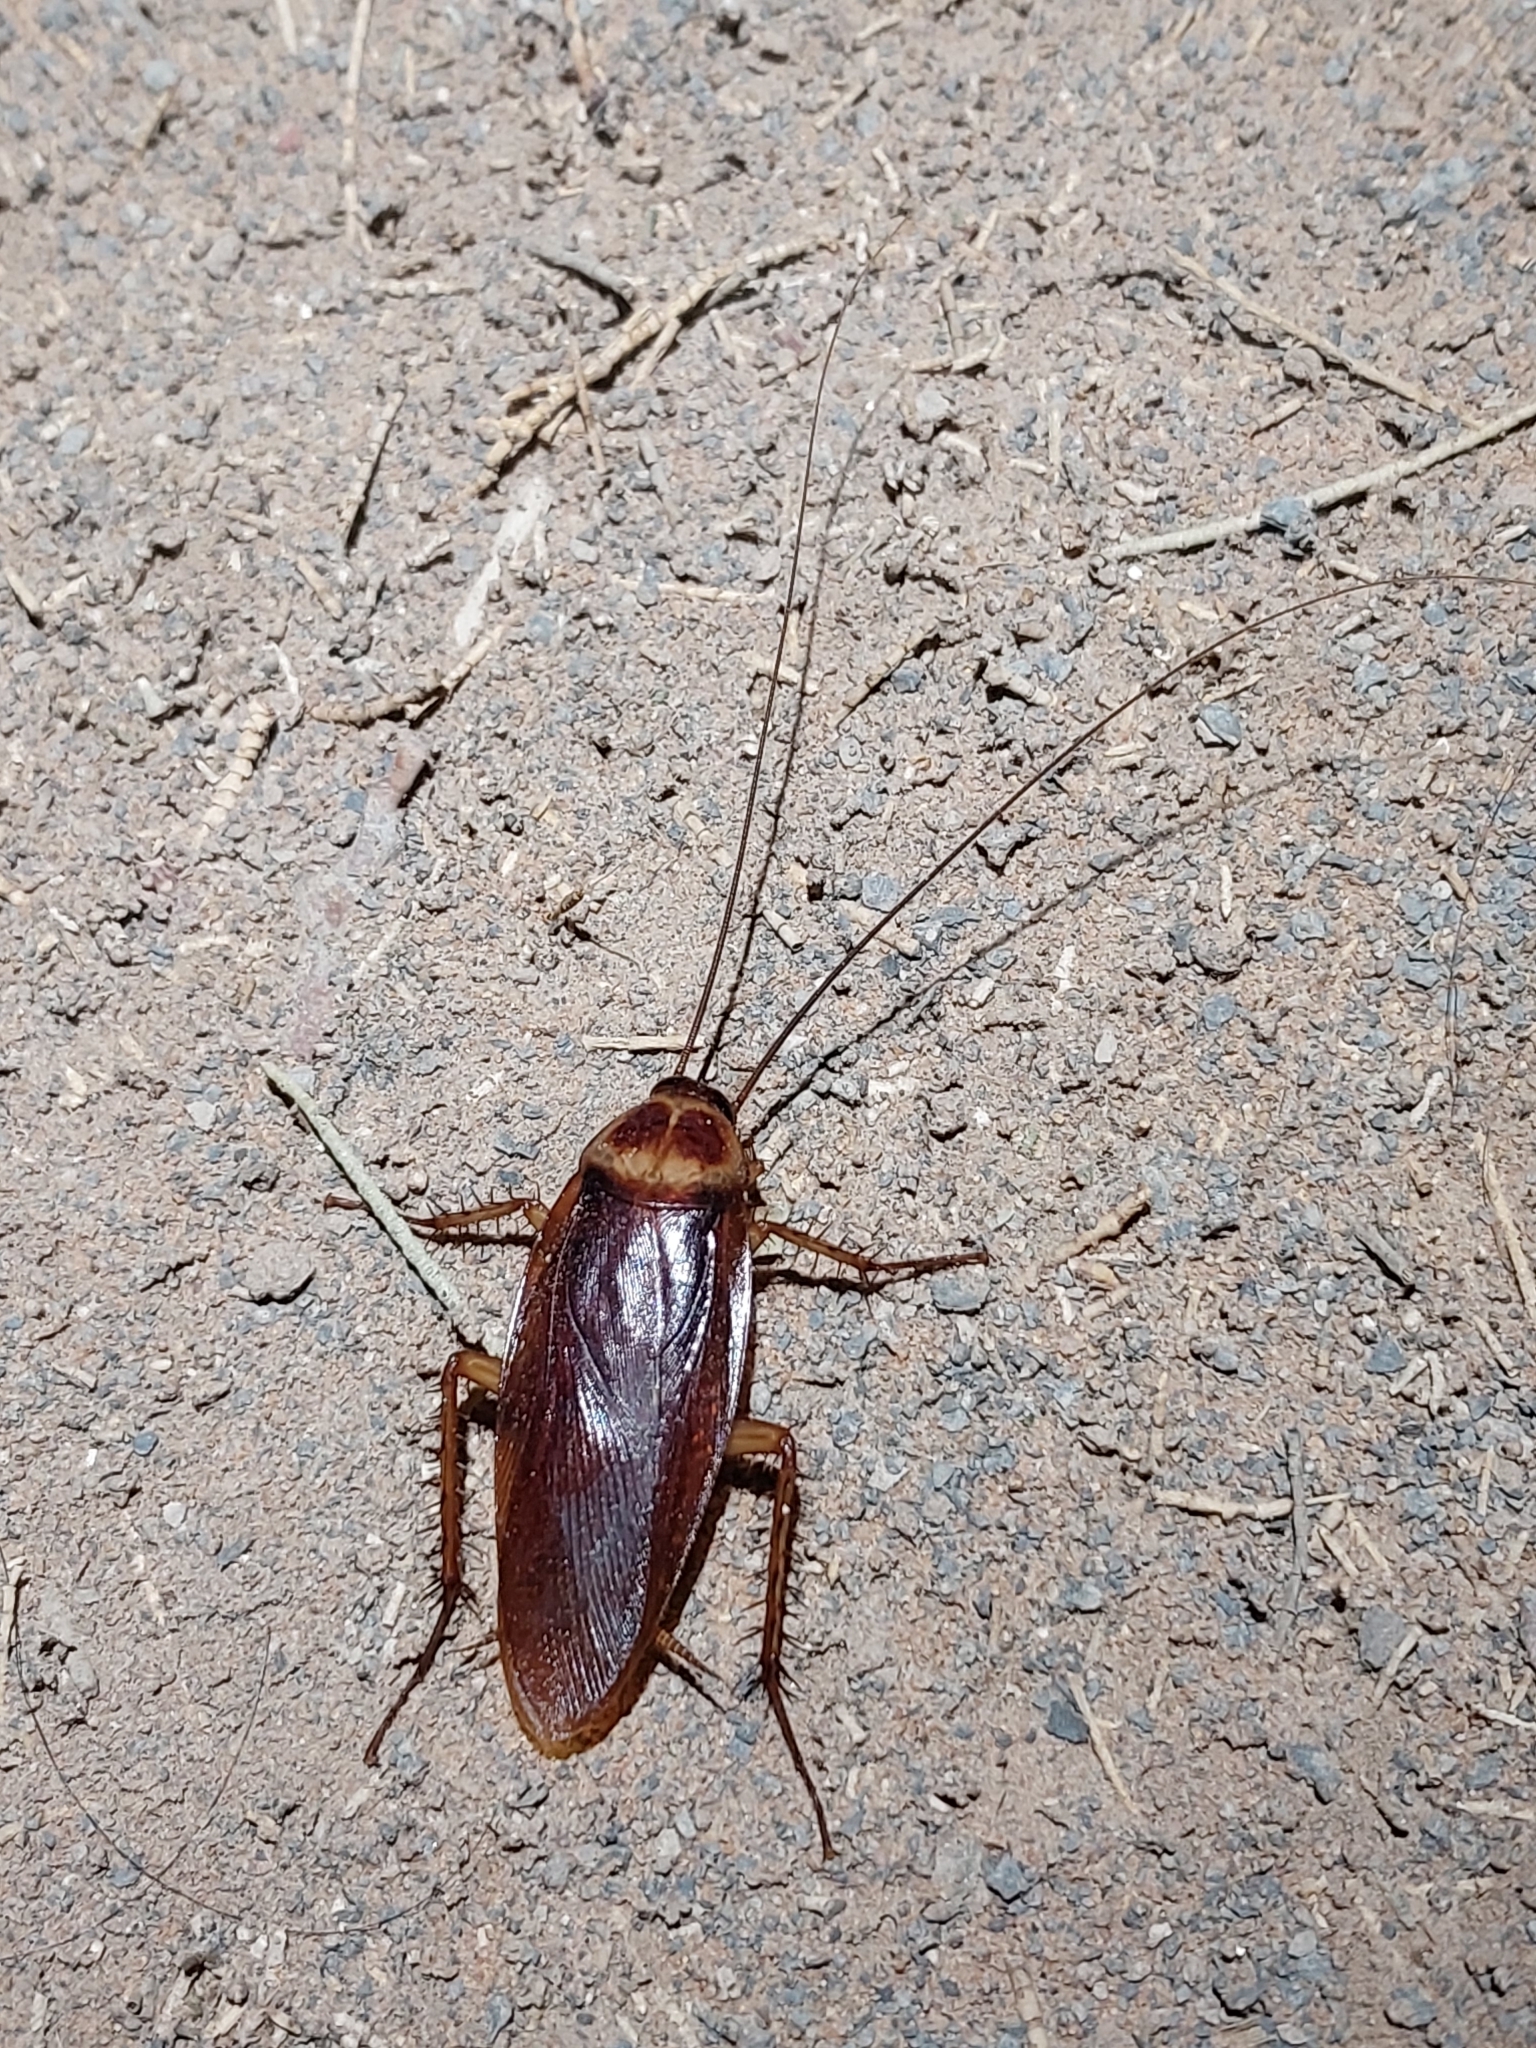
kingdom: Animalia
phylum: Arthropoda
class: Insecta
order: Blattodea
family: Blattidae
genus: Periplaneta
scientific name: Periplaneta americana
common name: American cockroach
